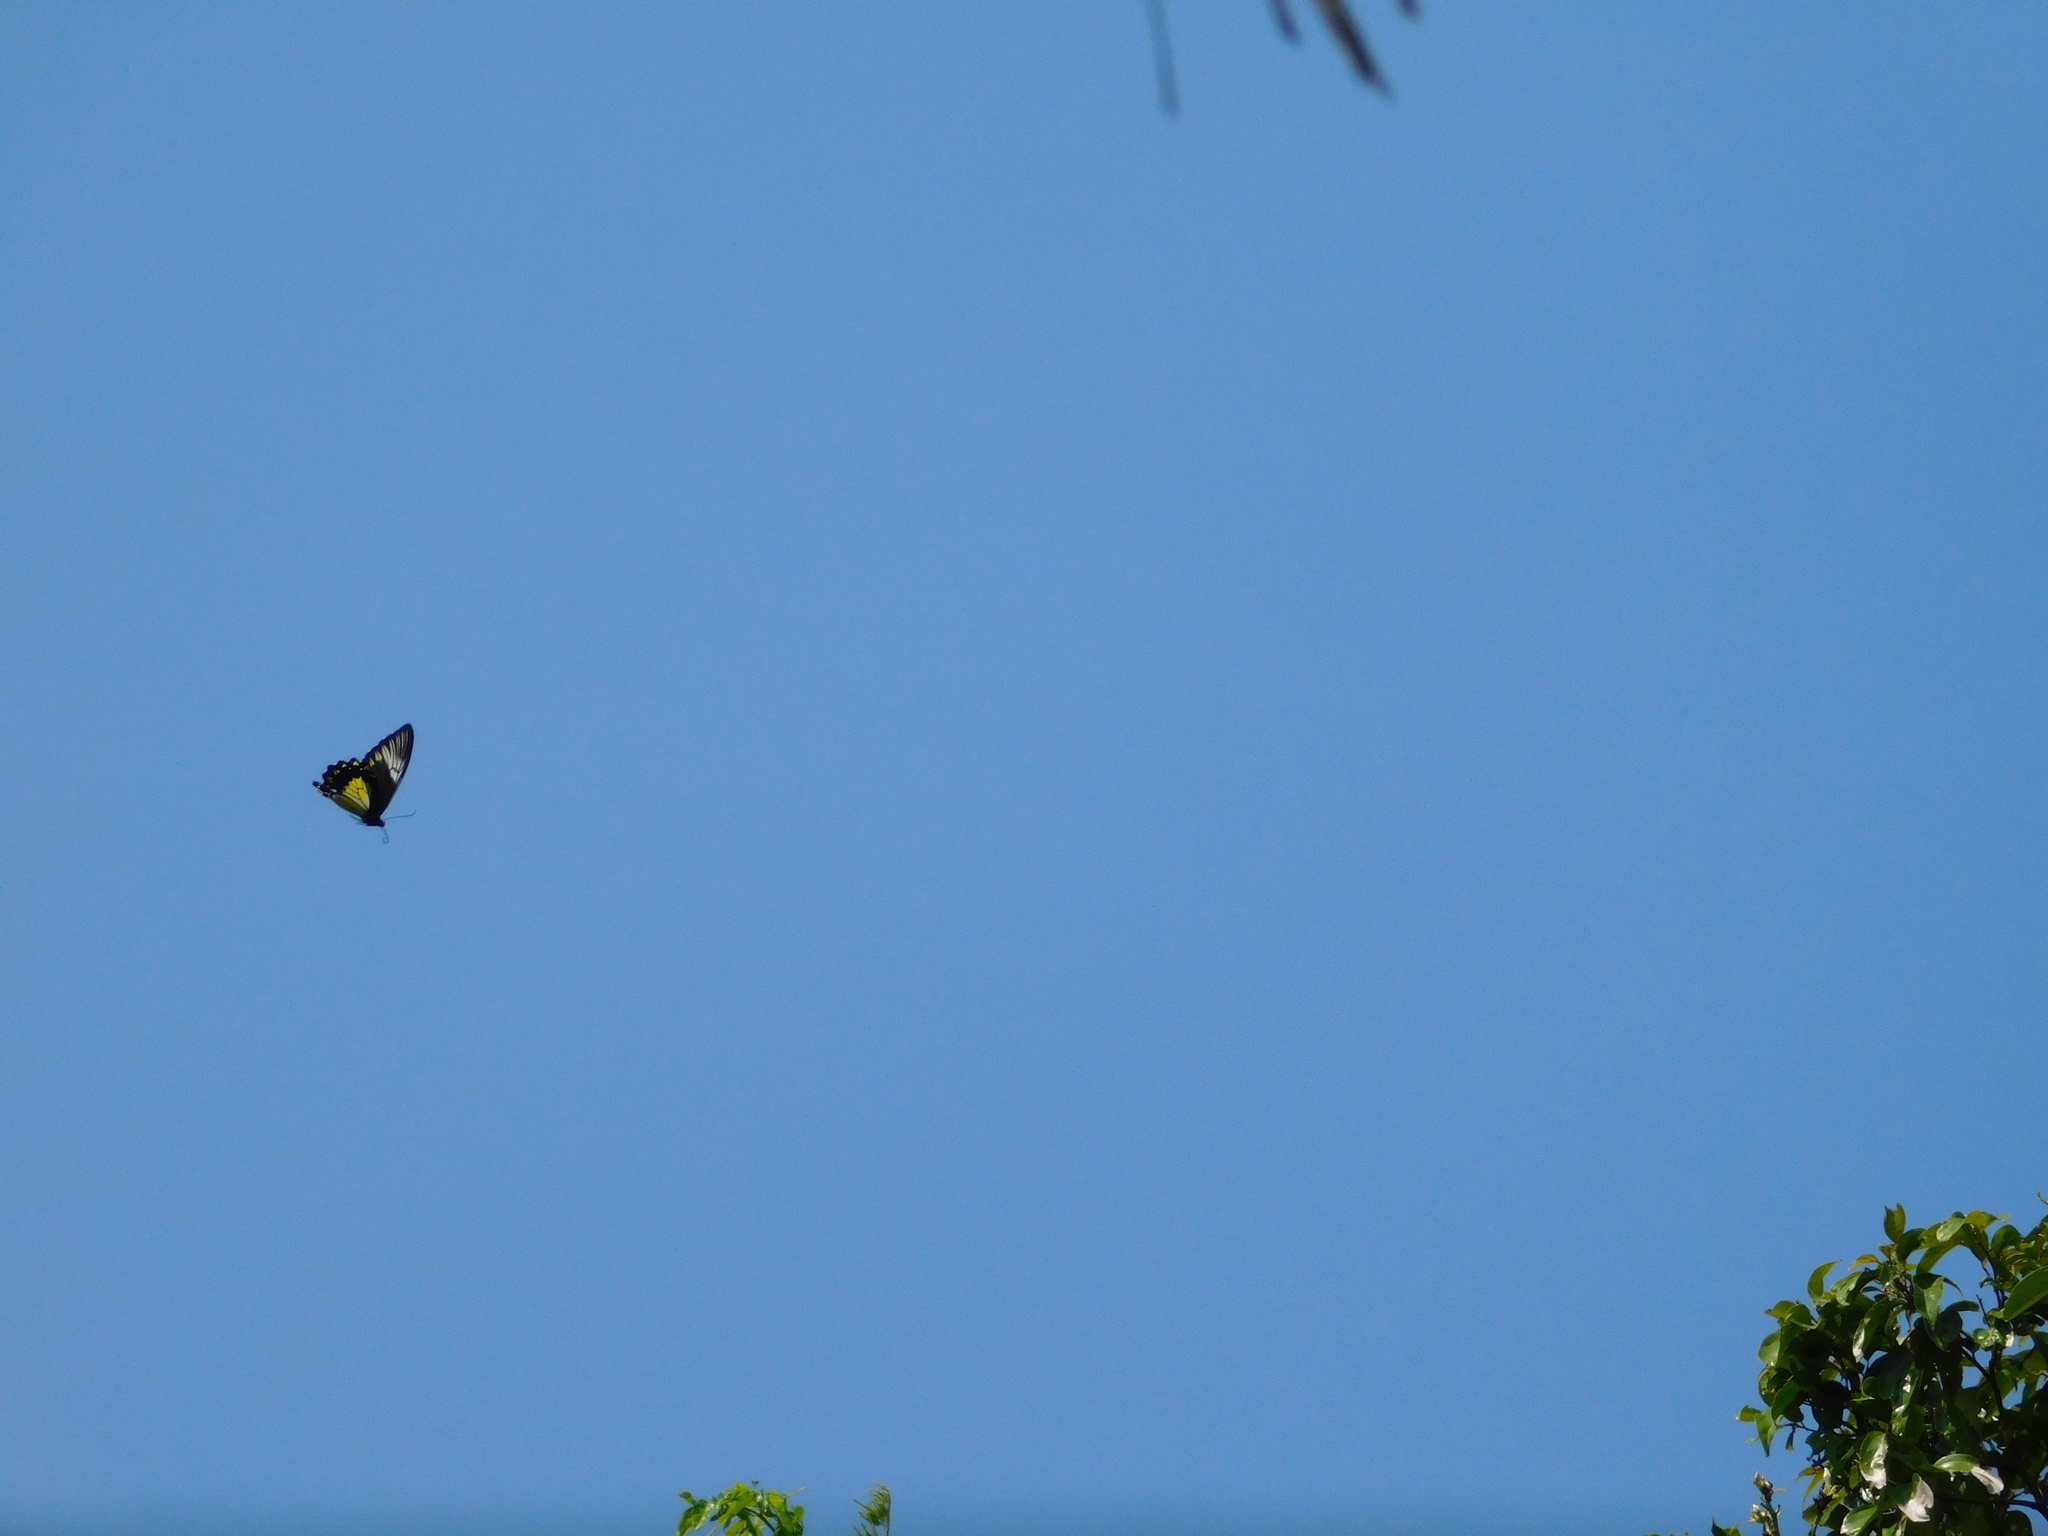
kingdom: Animalia
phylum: Arthropoda
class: Insecta
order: Lepidoptera
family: Papilionidae
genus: Troides
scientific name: Troides amphrysus
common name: Malay birdwing
